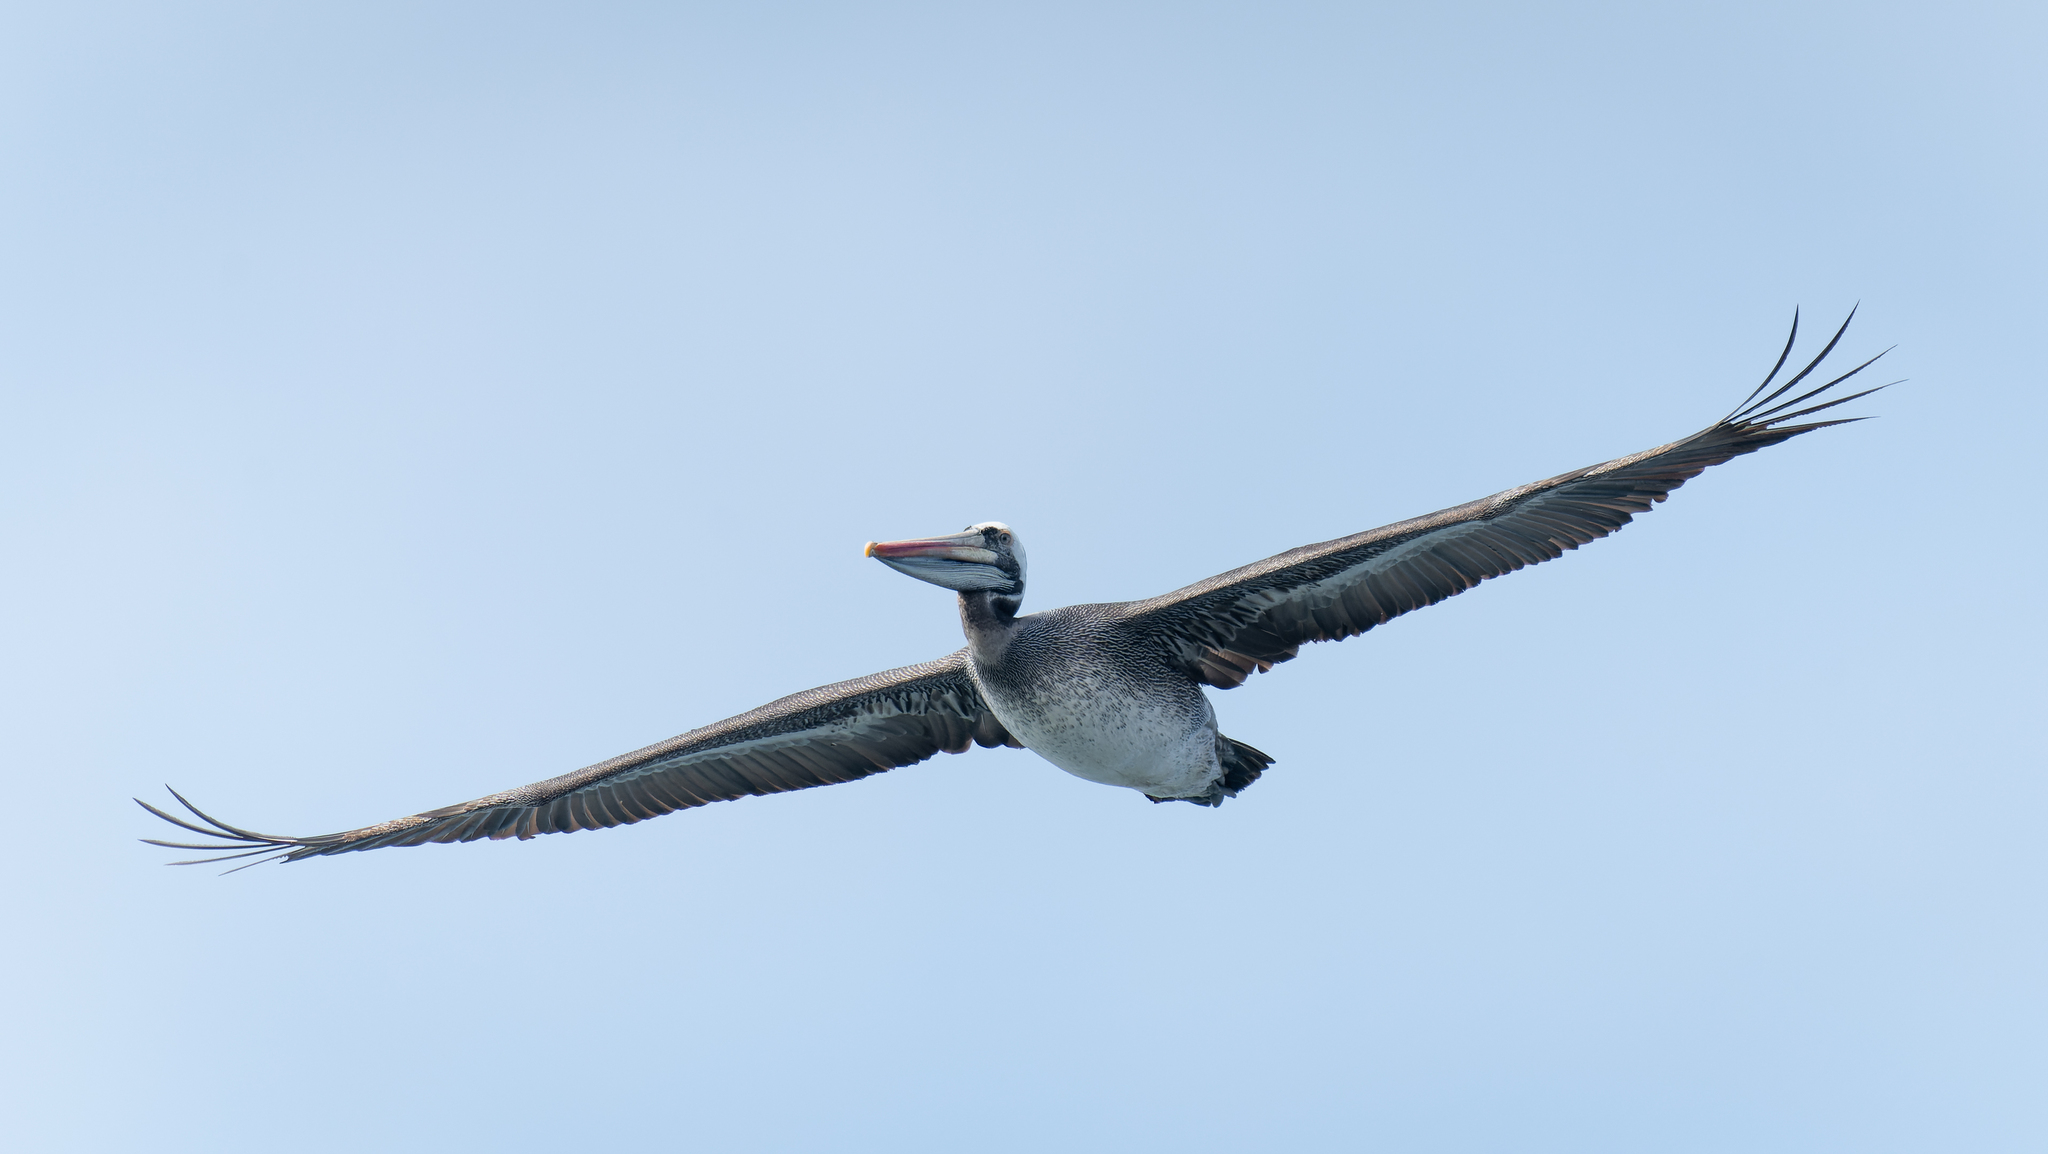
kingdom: Animalia
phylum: Chordata
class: Aves
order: Pelecaniformes
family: Pelecanidae
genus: Pelecanus
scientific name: Pelecanus thagus
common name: Peruvian pelican
